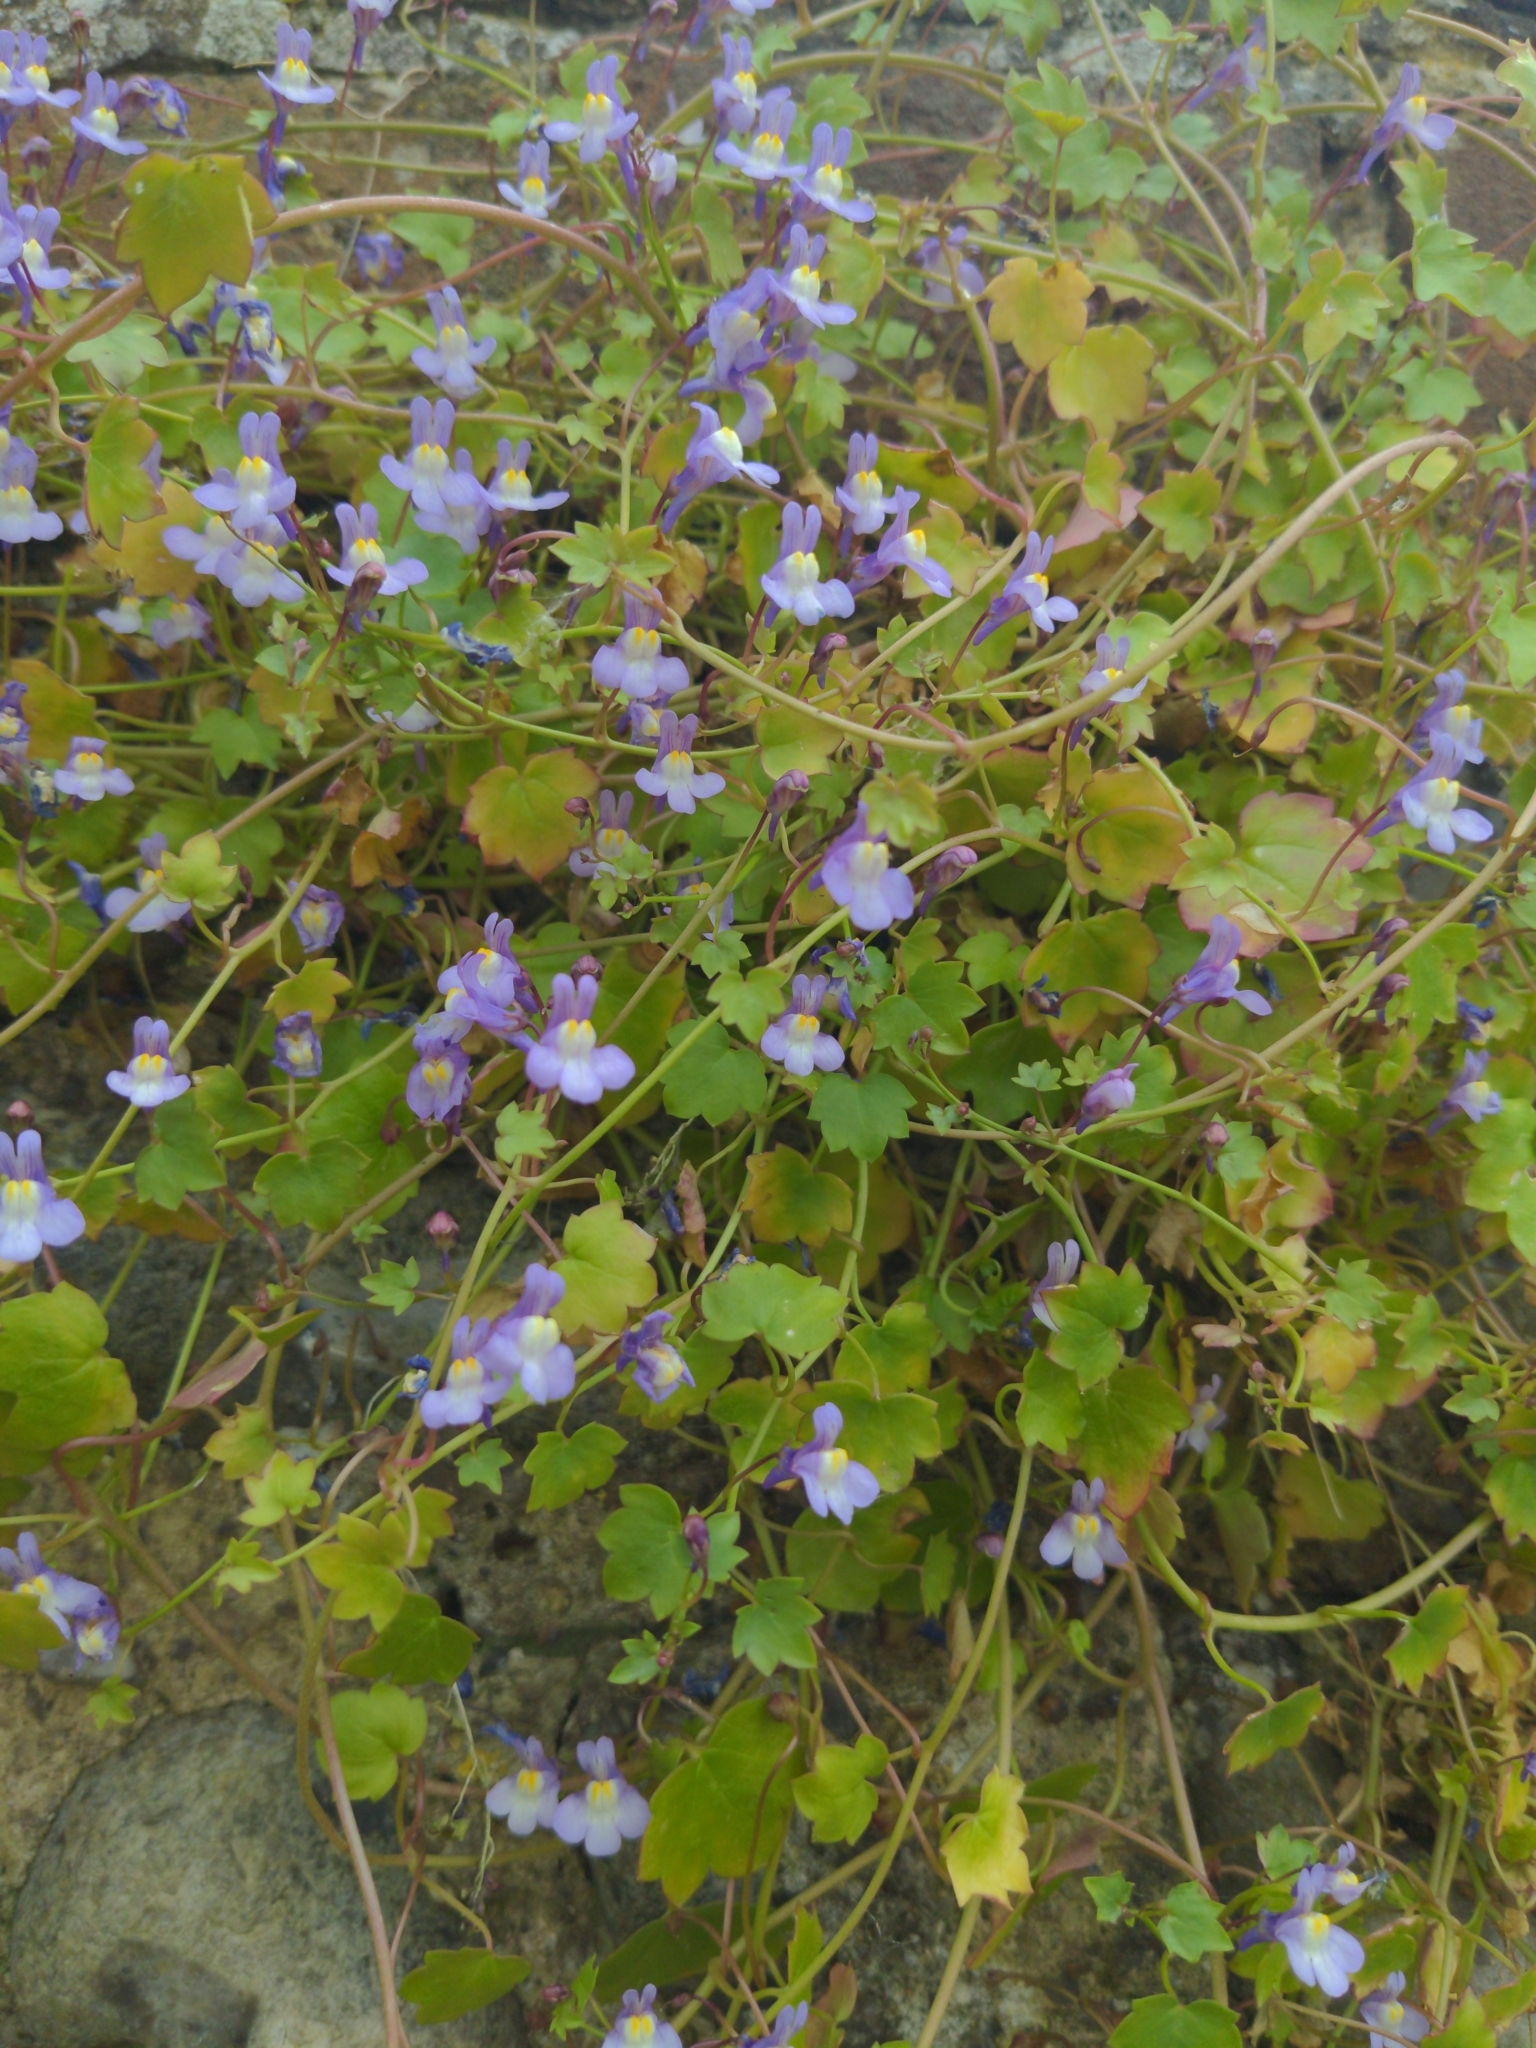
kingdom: Plantae
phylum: Tracheophyta
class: Magnoliopsida
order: Lamiales
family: Plantaginaceae
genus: Cymbalaria
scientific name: Cymbalaria muralis
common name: Ivy-leaved toadflax
